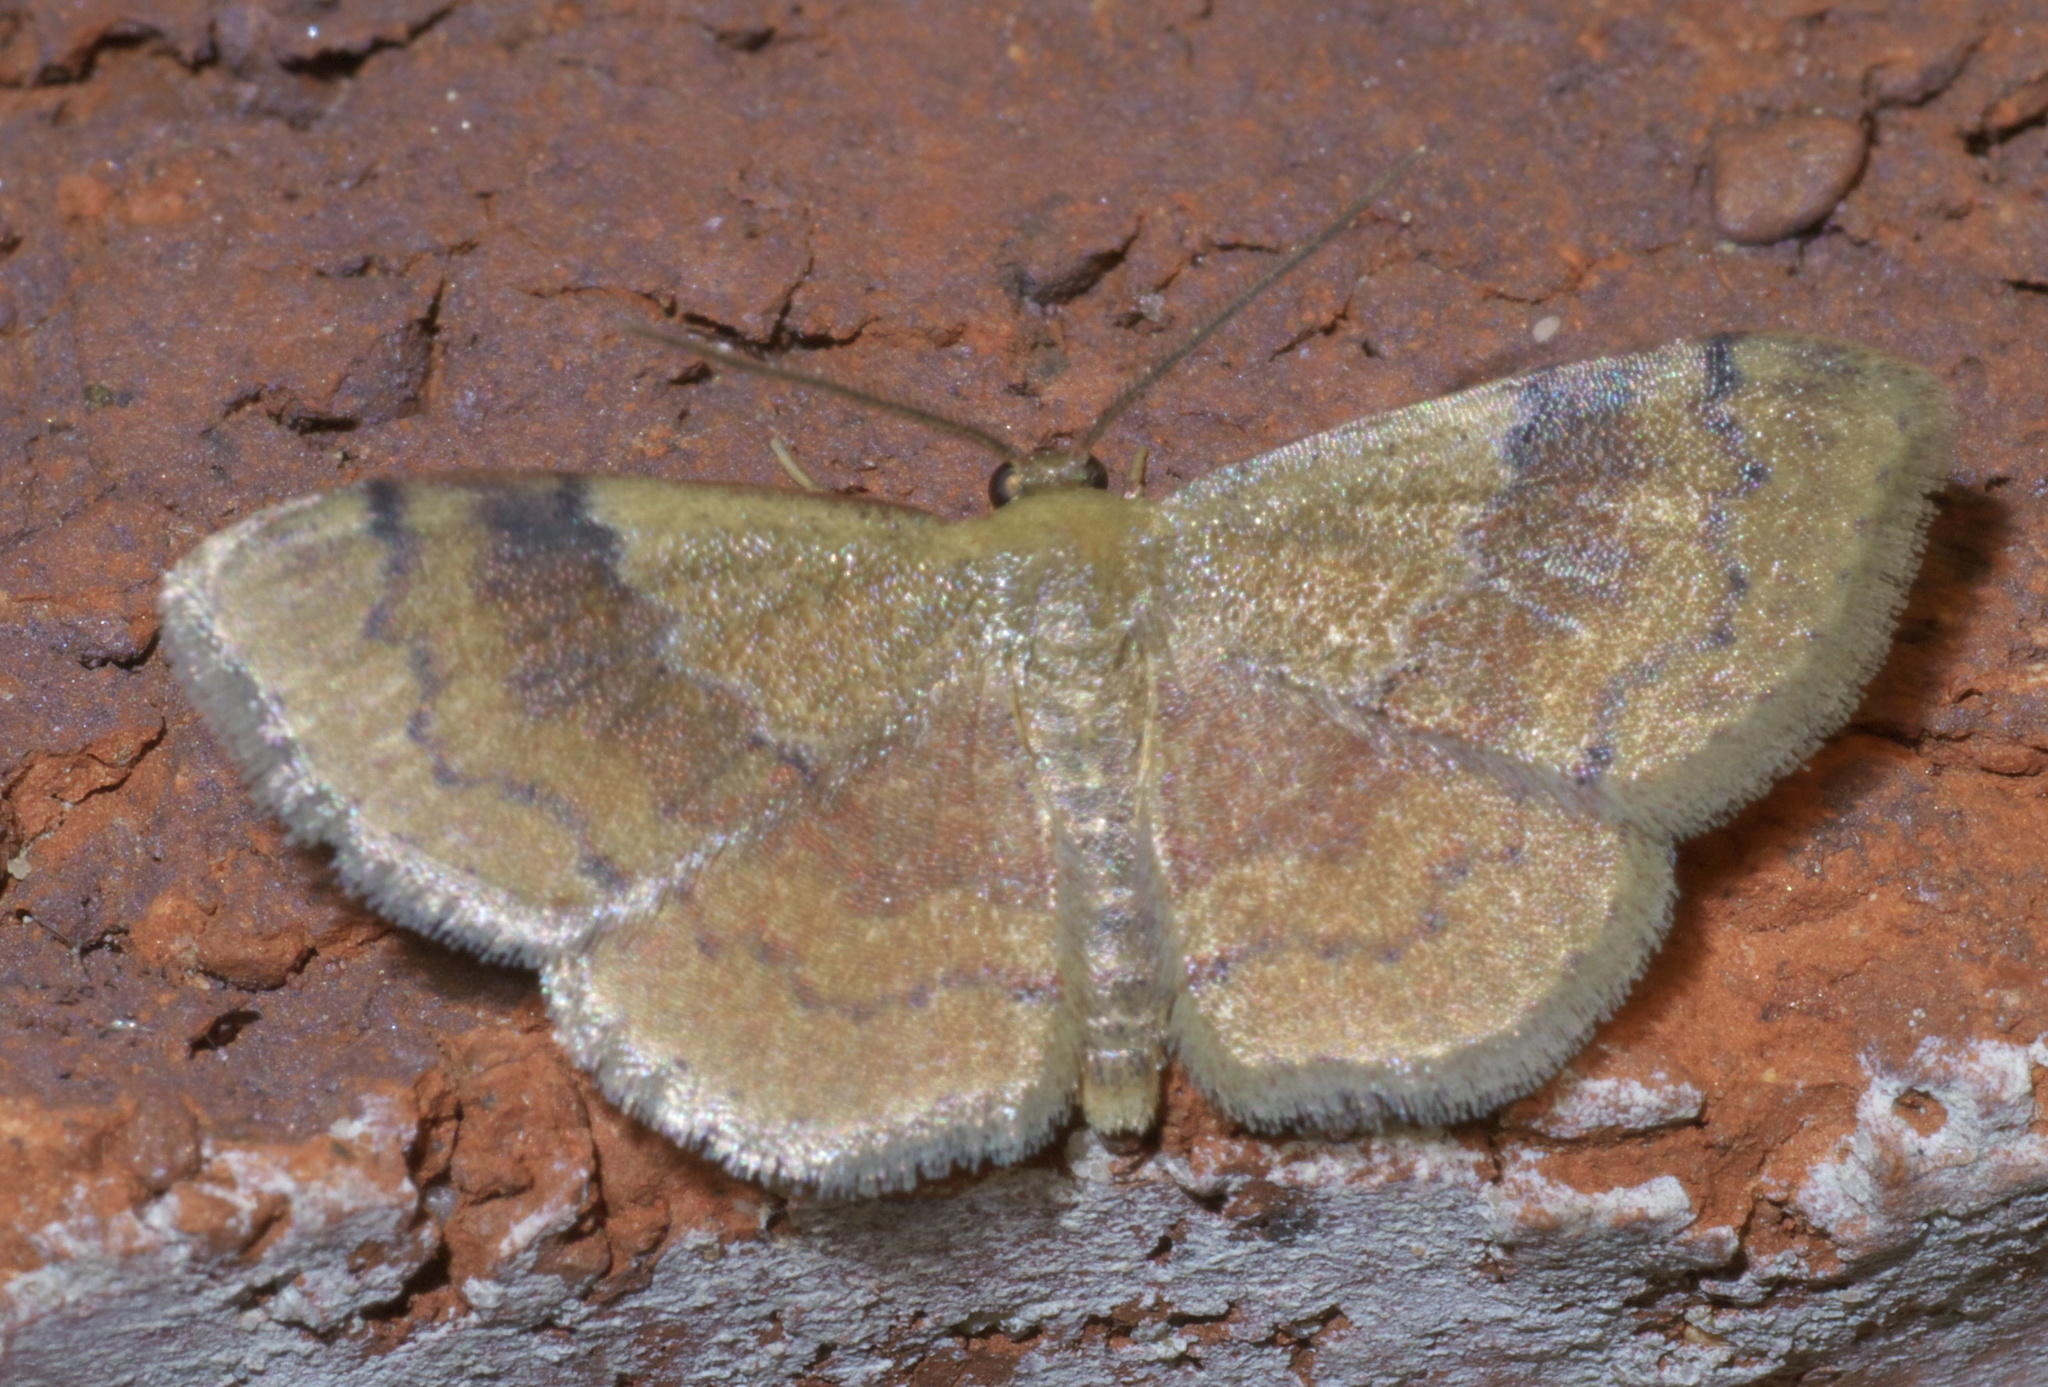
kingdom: Animalia
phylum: Arthropoda
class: Insecta
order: Lepidoptera
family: Geometridae
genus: Leptostales
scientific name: Leptostales ferruminaria
